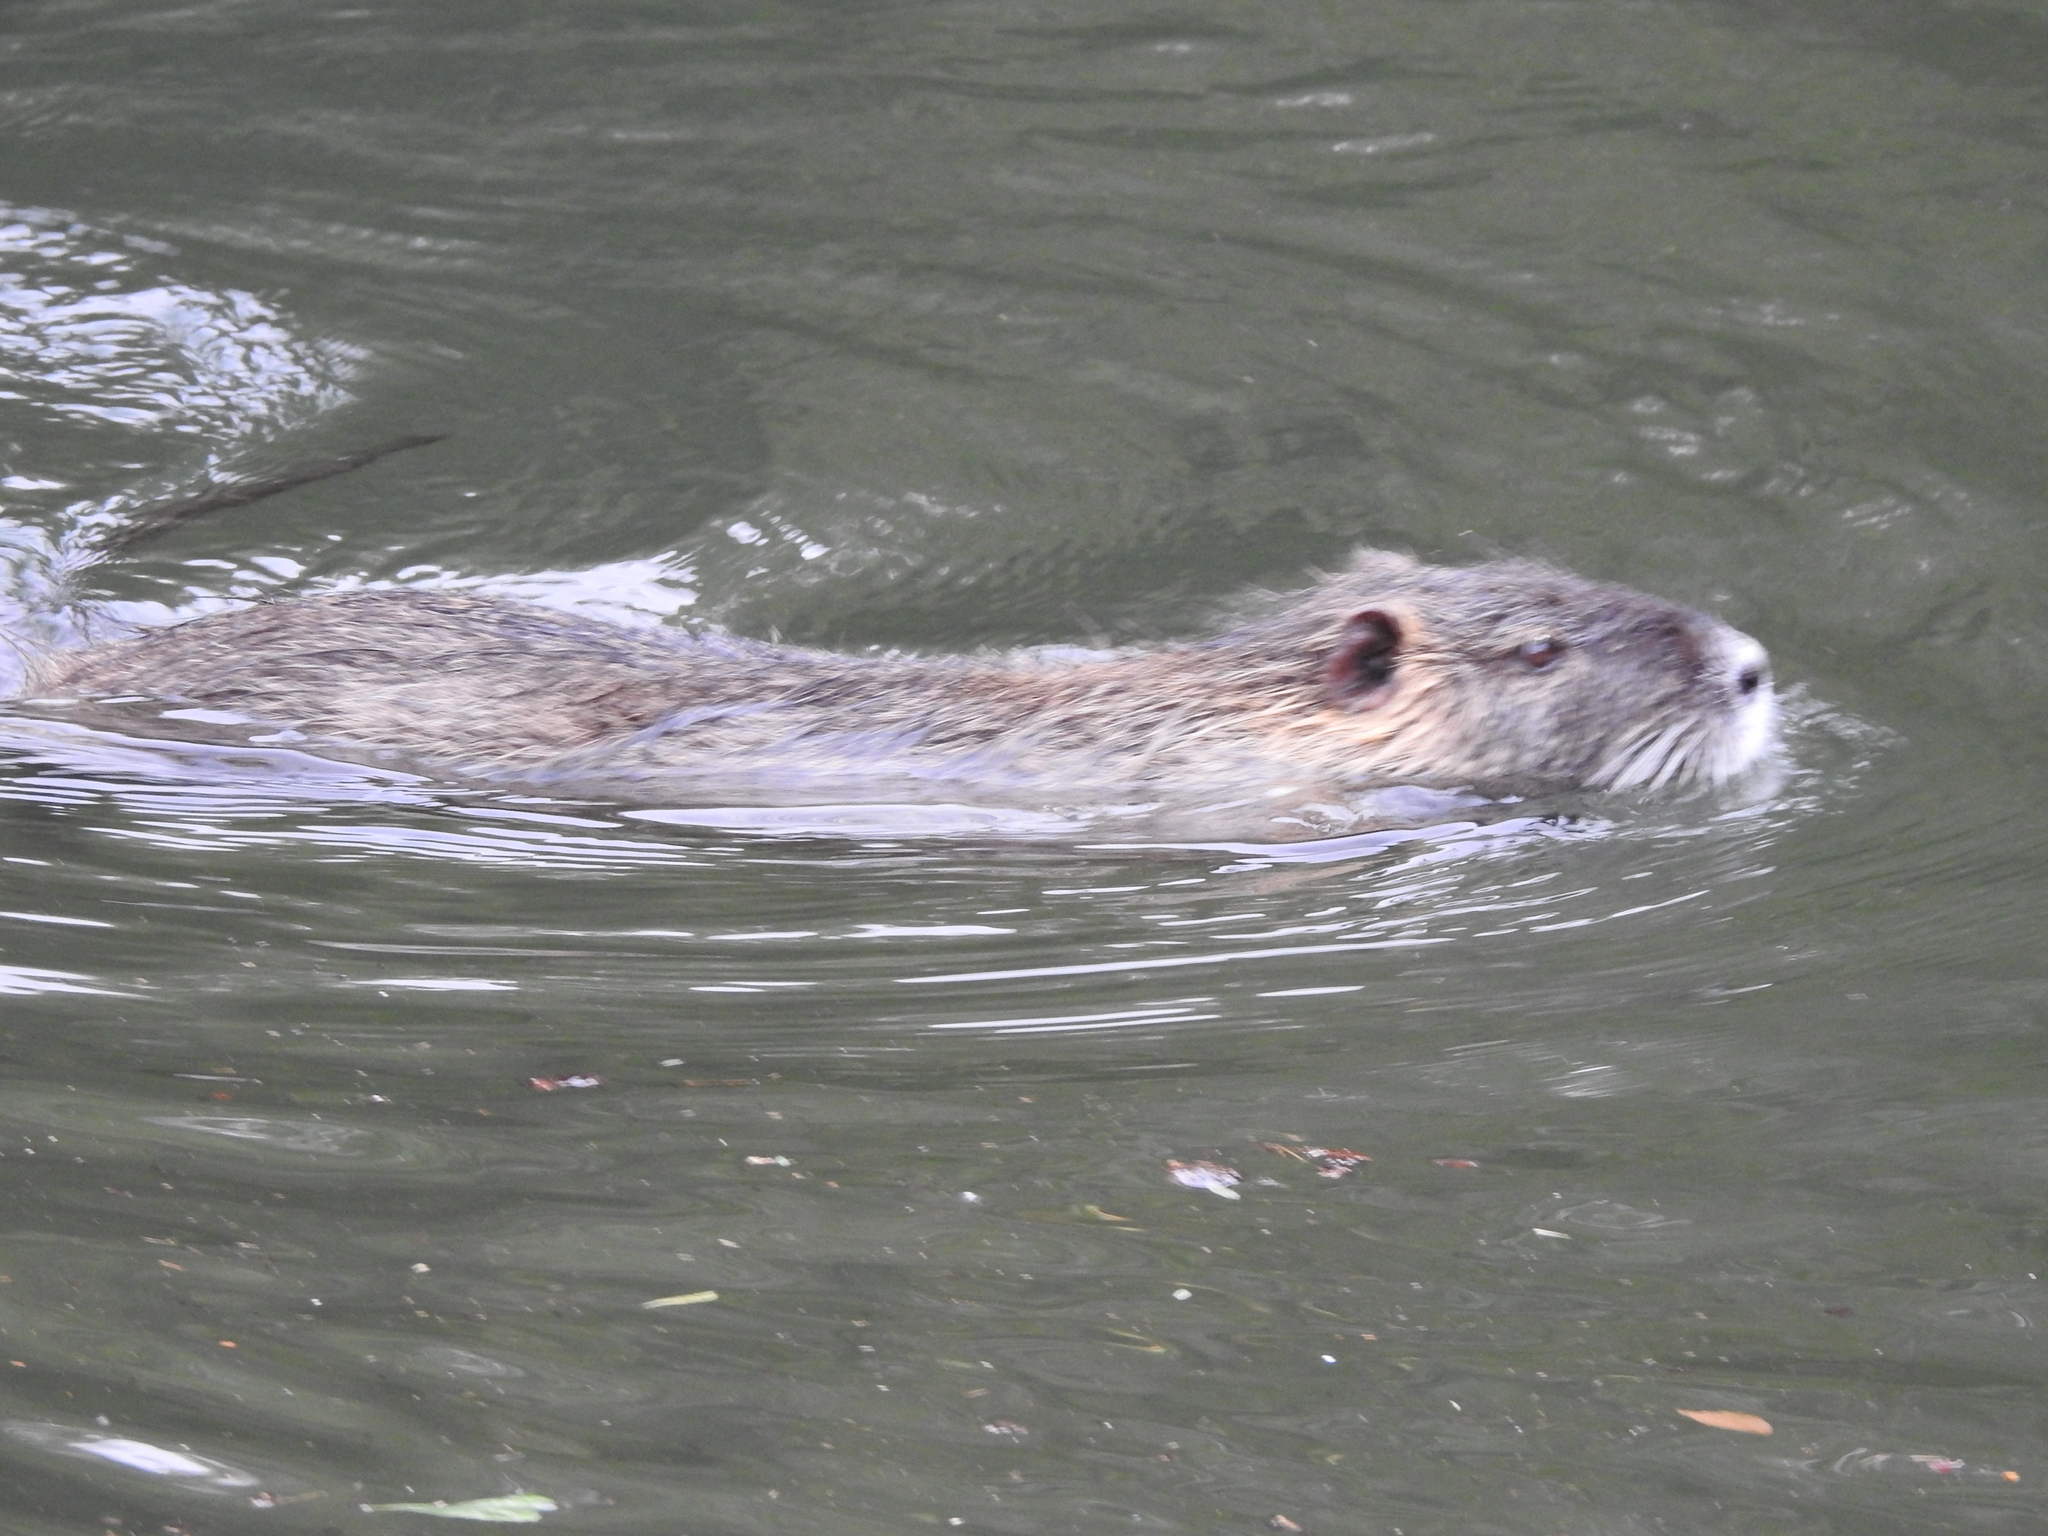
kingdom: Animalia
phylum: Chordata
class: Mammalia
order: Rodentia
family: Myocastoridae
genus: Myocastor
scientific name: Myocastor coypus
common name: Coypu
